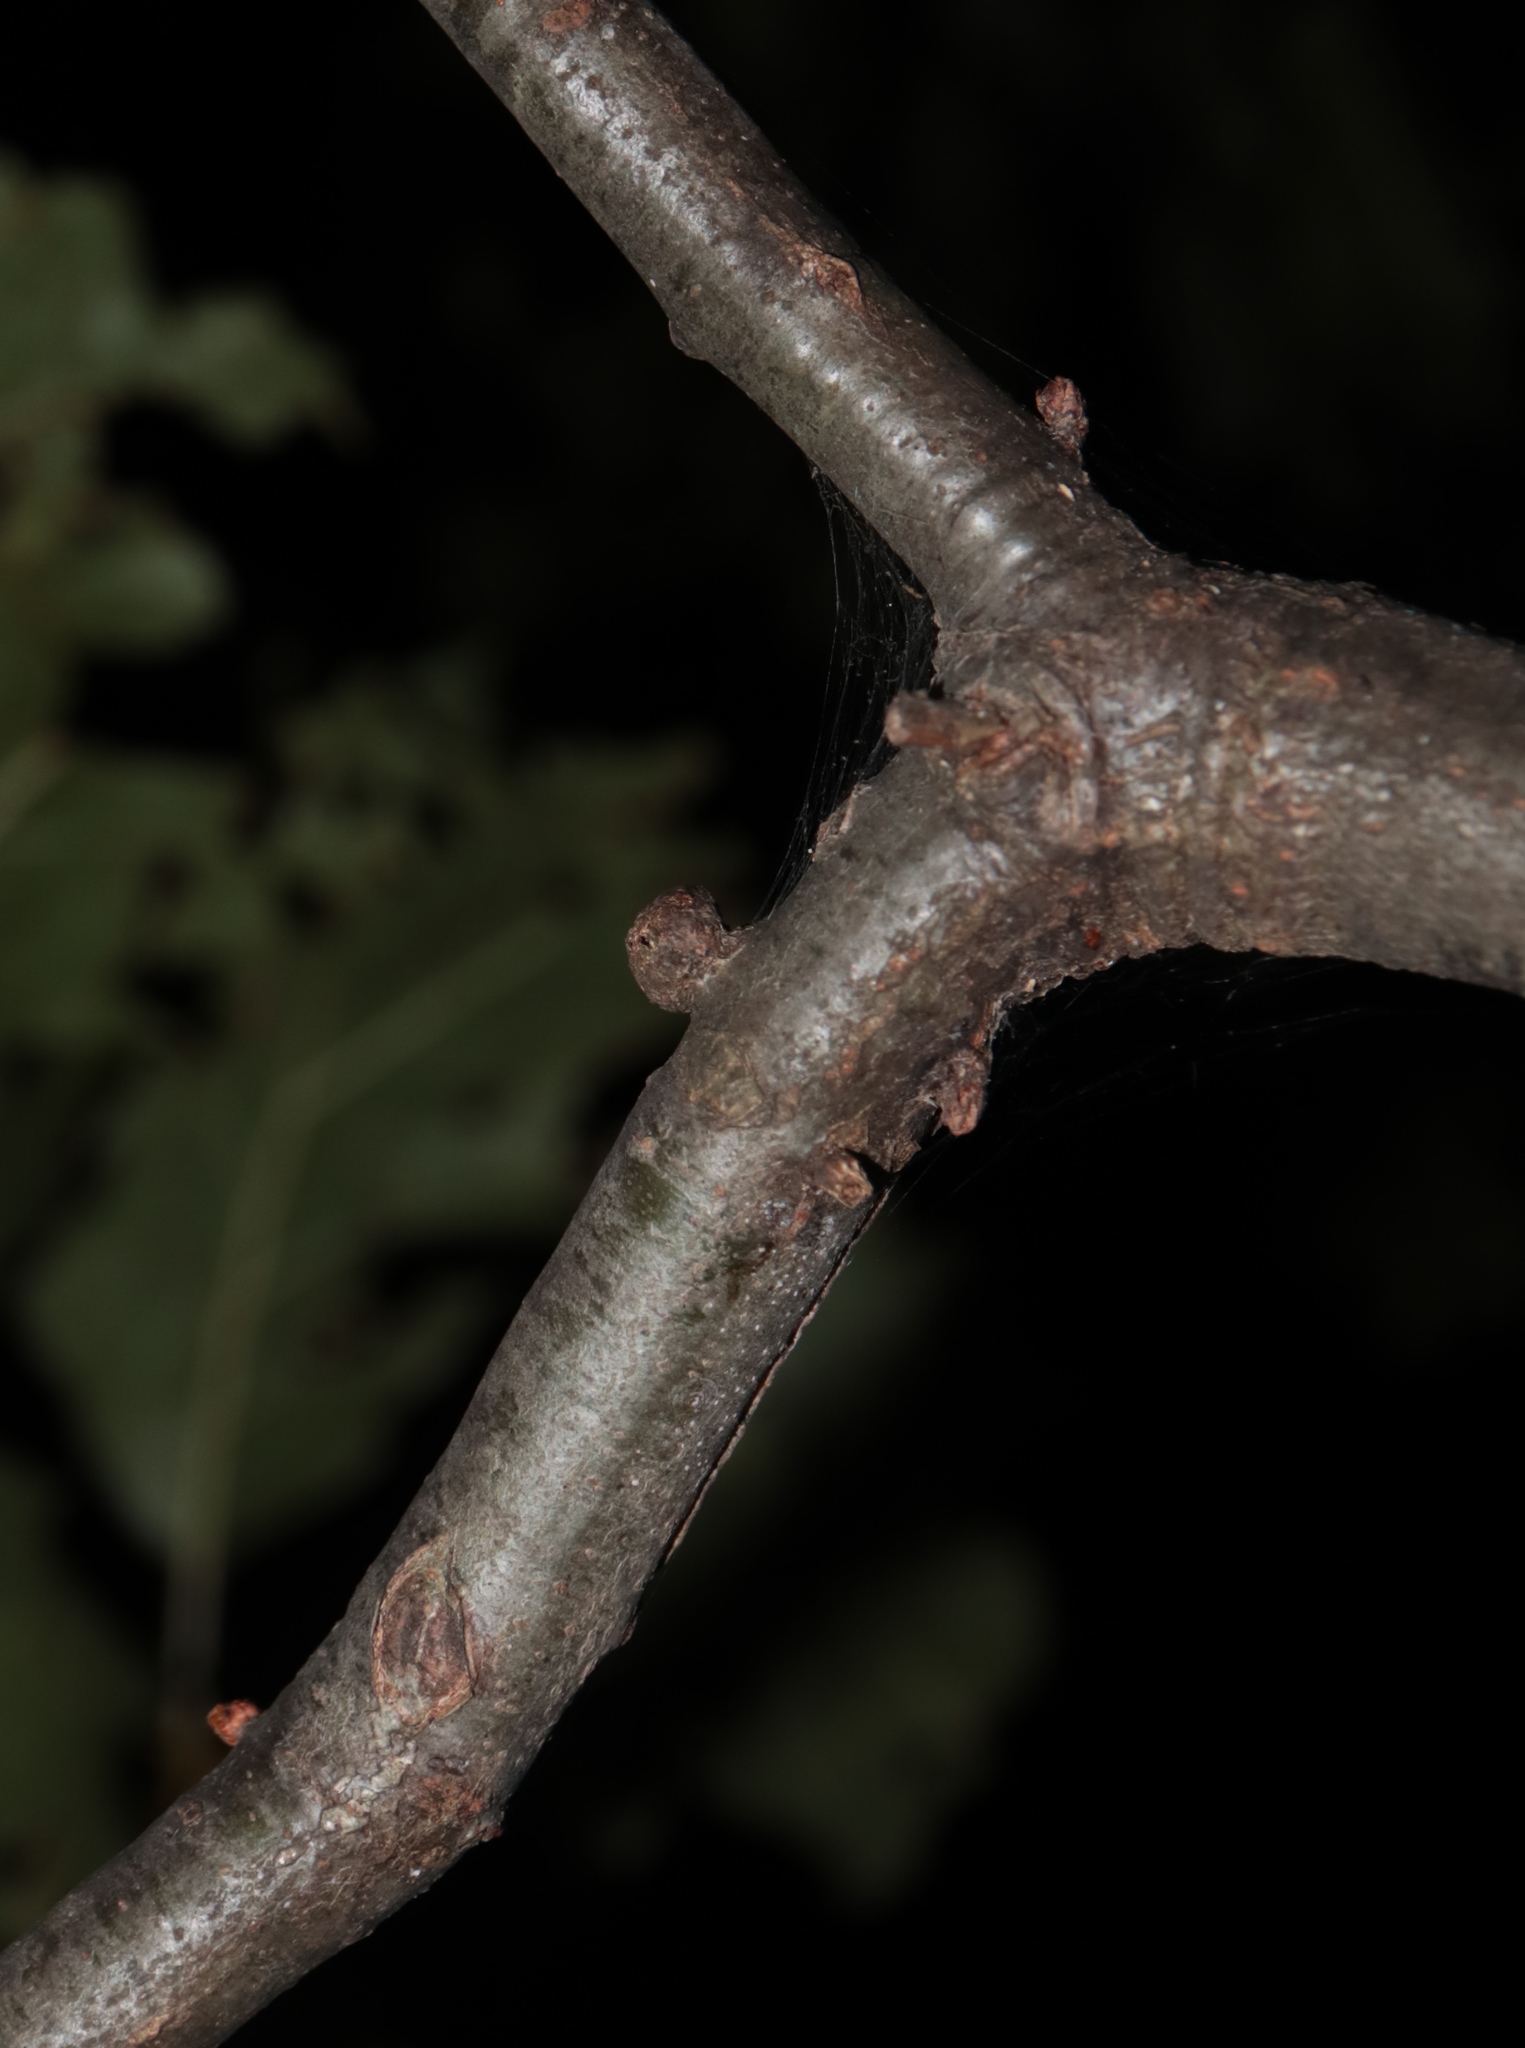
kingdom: Animalia
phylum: Arthropoda
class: Insecta
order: Hymenoptera
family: Cynipidae
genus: Callirhytis
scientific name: Callirhytis
